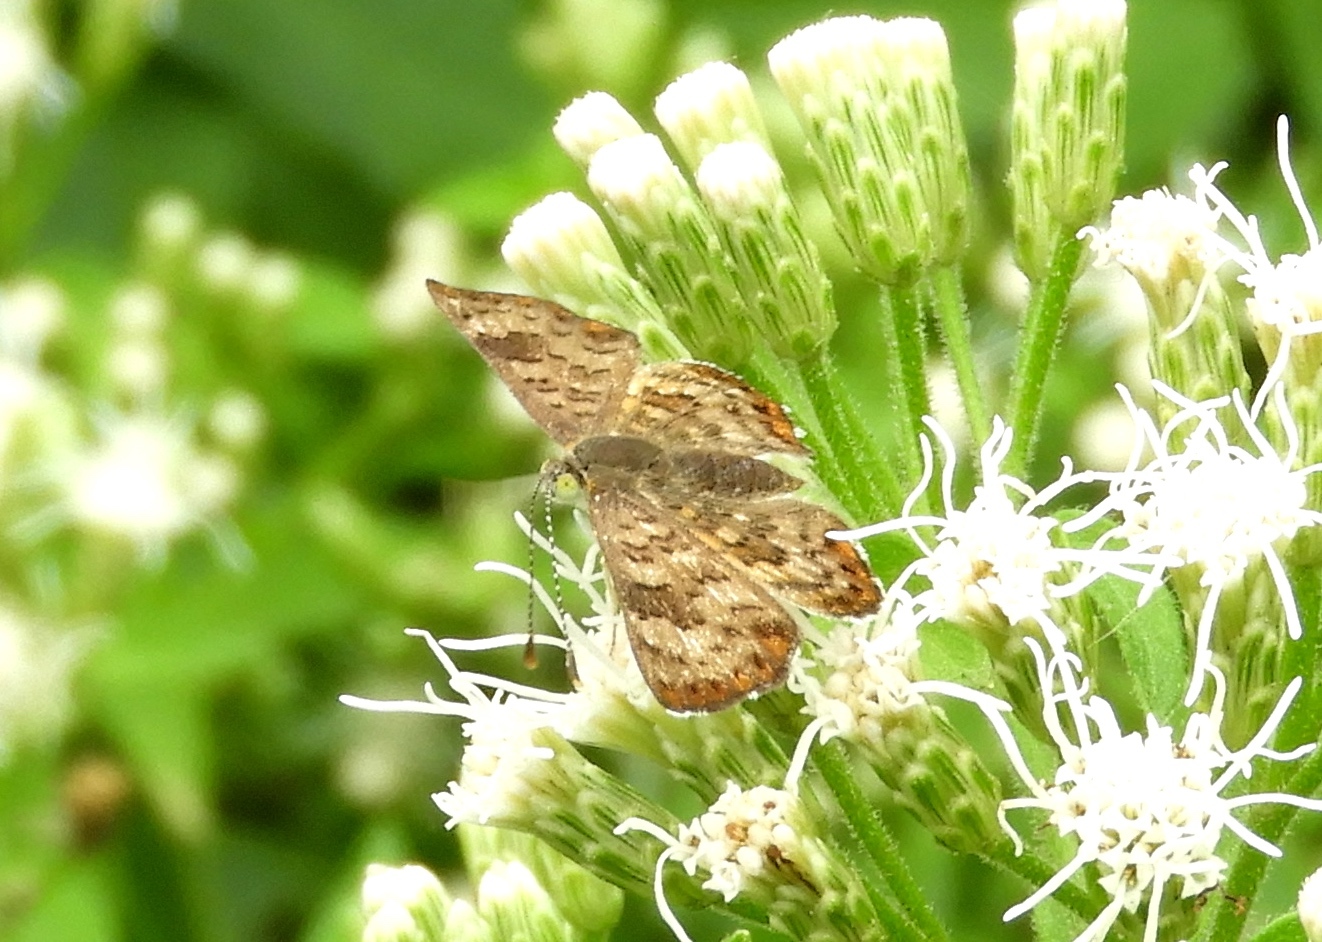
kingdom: Animalia
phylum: Arthropoda
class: Insecta
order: Lepidoptera
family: Riodinidae
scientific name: Riodinidae
